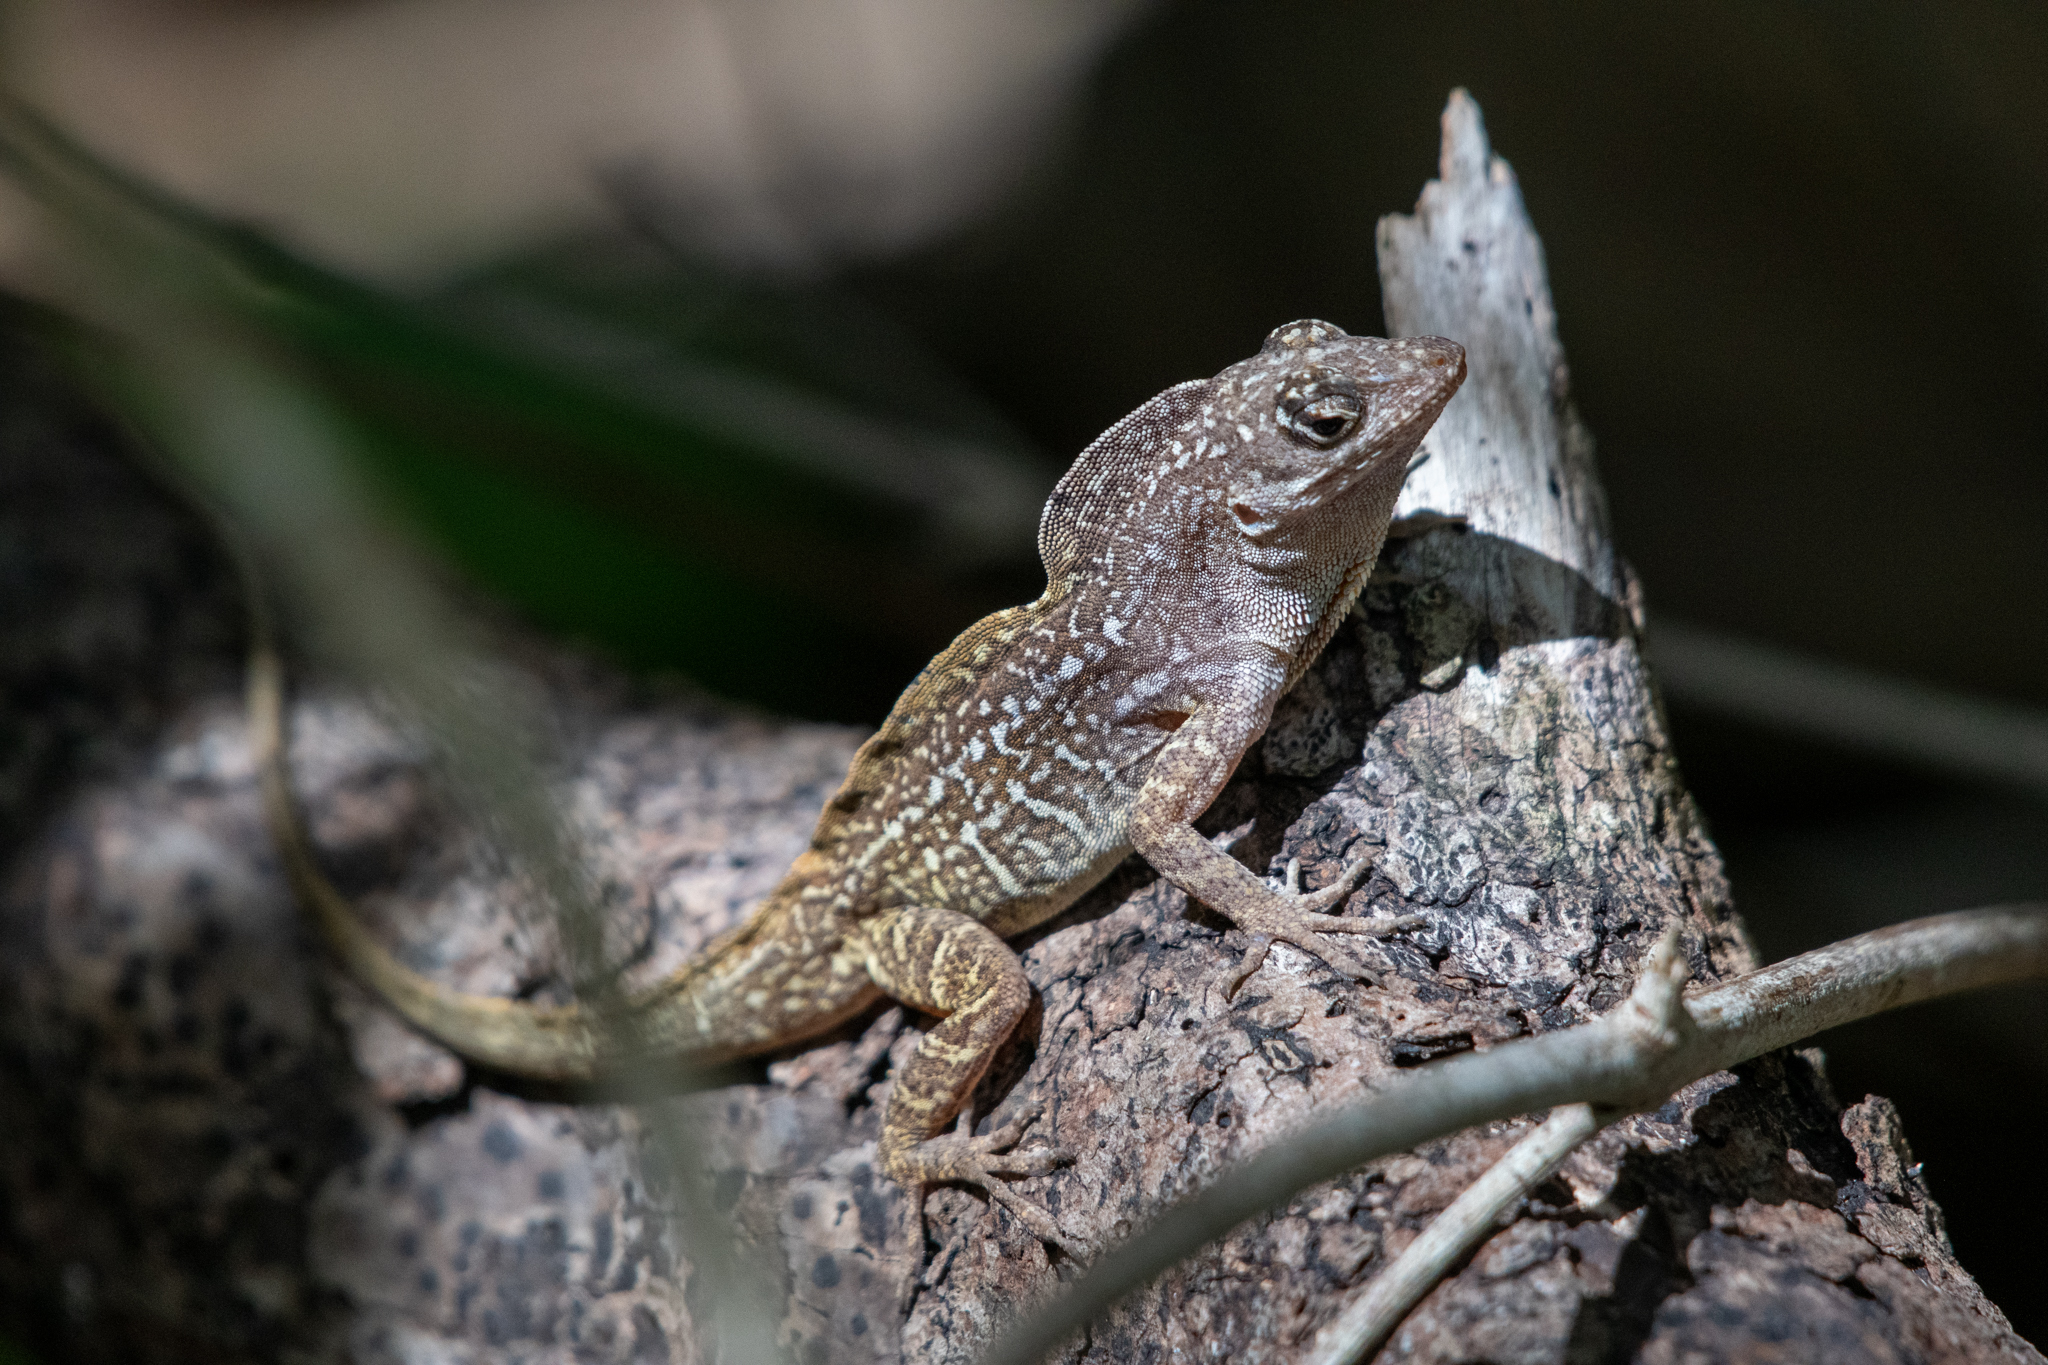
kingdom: Animalia
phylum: Chordata
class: Squamata
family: Dactyloidae
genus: Anolis
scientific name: Anolis sagrei
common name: Brown anole
